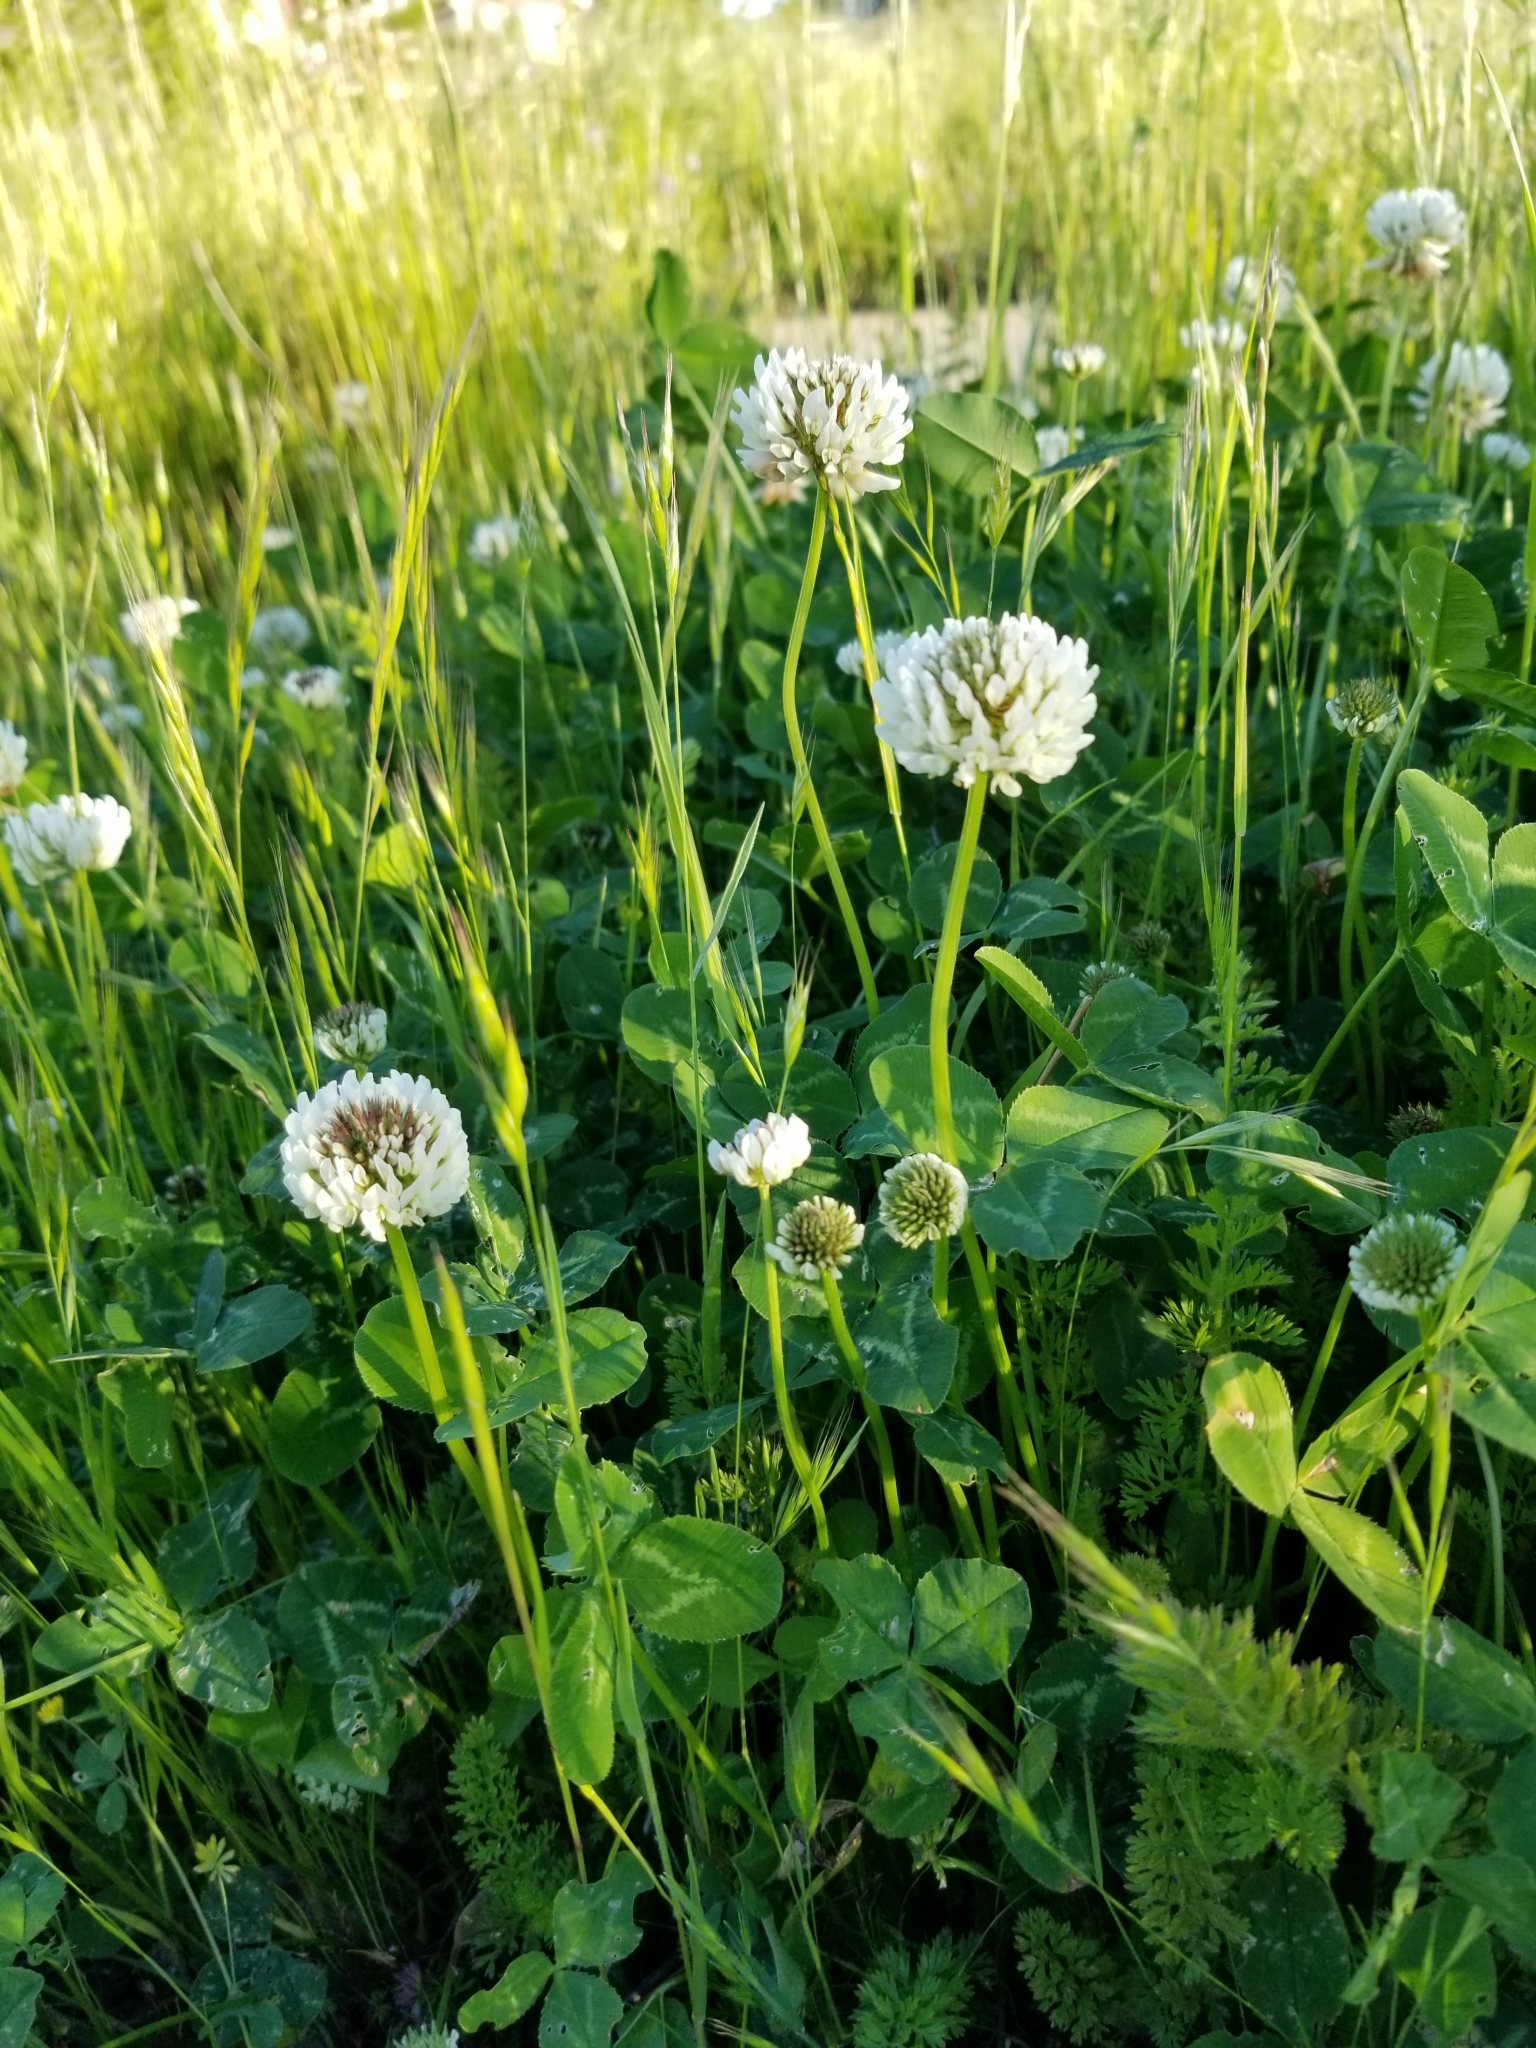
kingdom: Plantae
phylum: Tracheophyta
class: Magnoliopsida
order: Fabales
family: Fabaceae
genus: Trifolium
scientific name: Trifolium repens
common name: White clover
